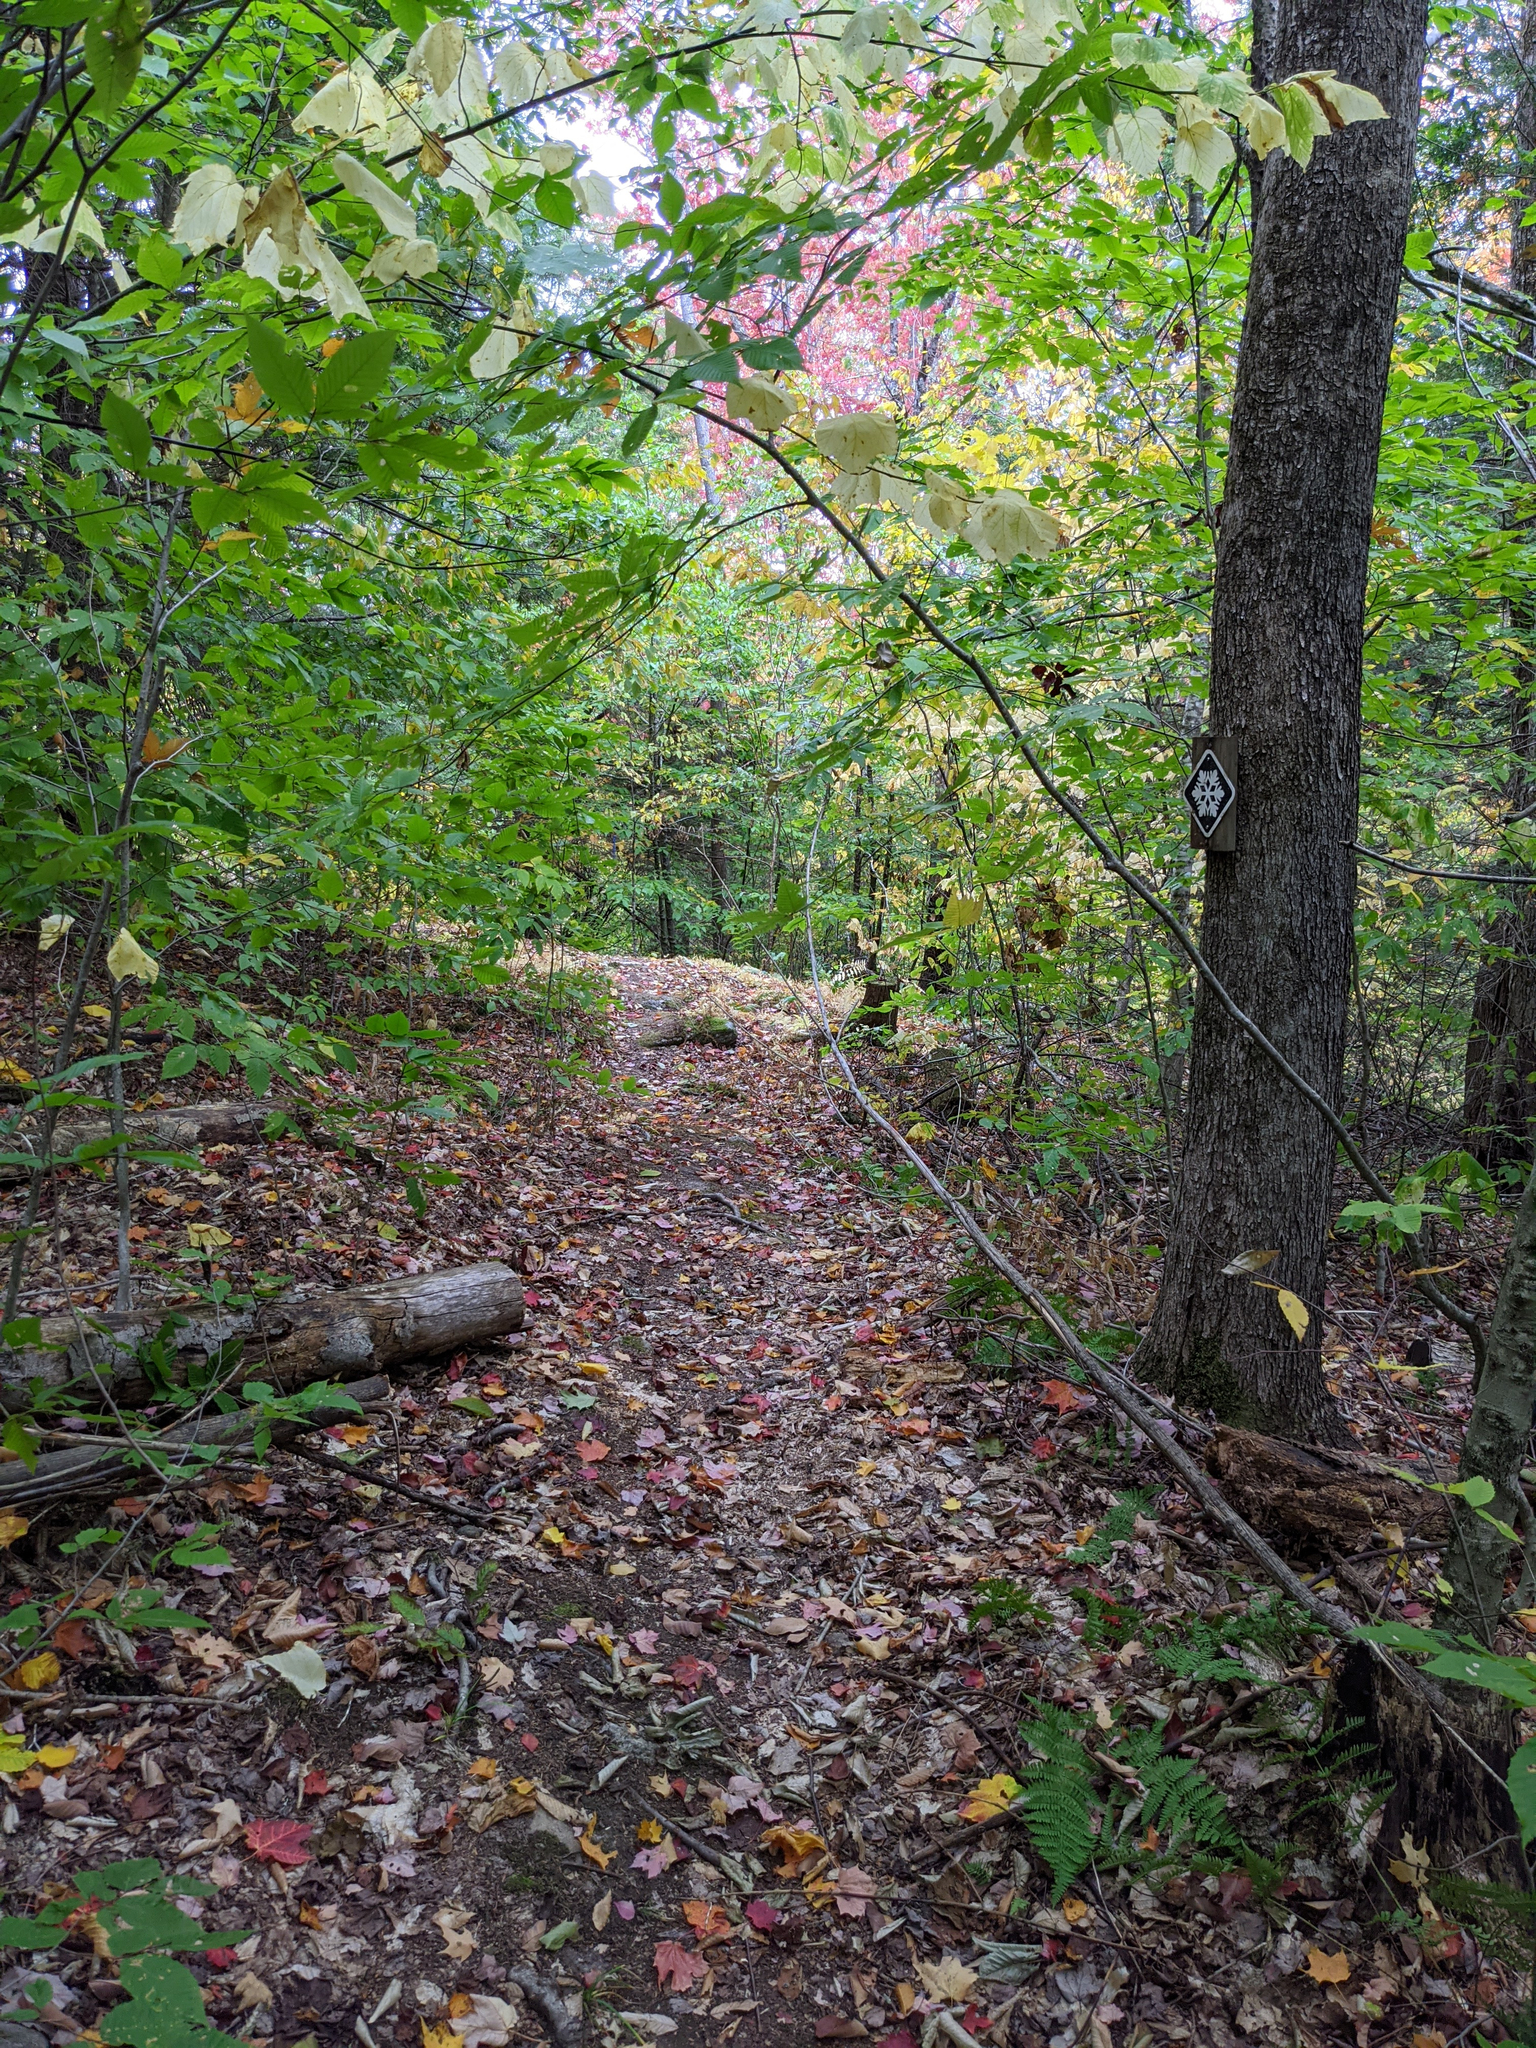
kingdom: Plantae
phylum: Tracheophyta
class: Magnoliopsida
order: Sapindales
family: Sapindaceae
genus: Acer
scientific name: Acer saccharum
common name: Sugar maple
